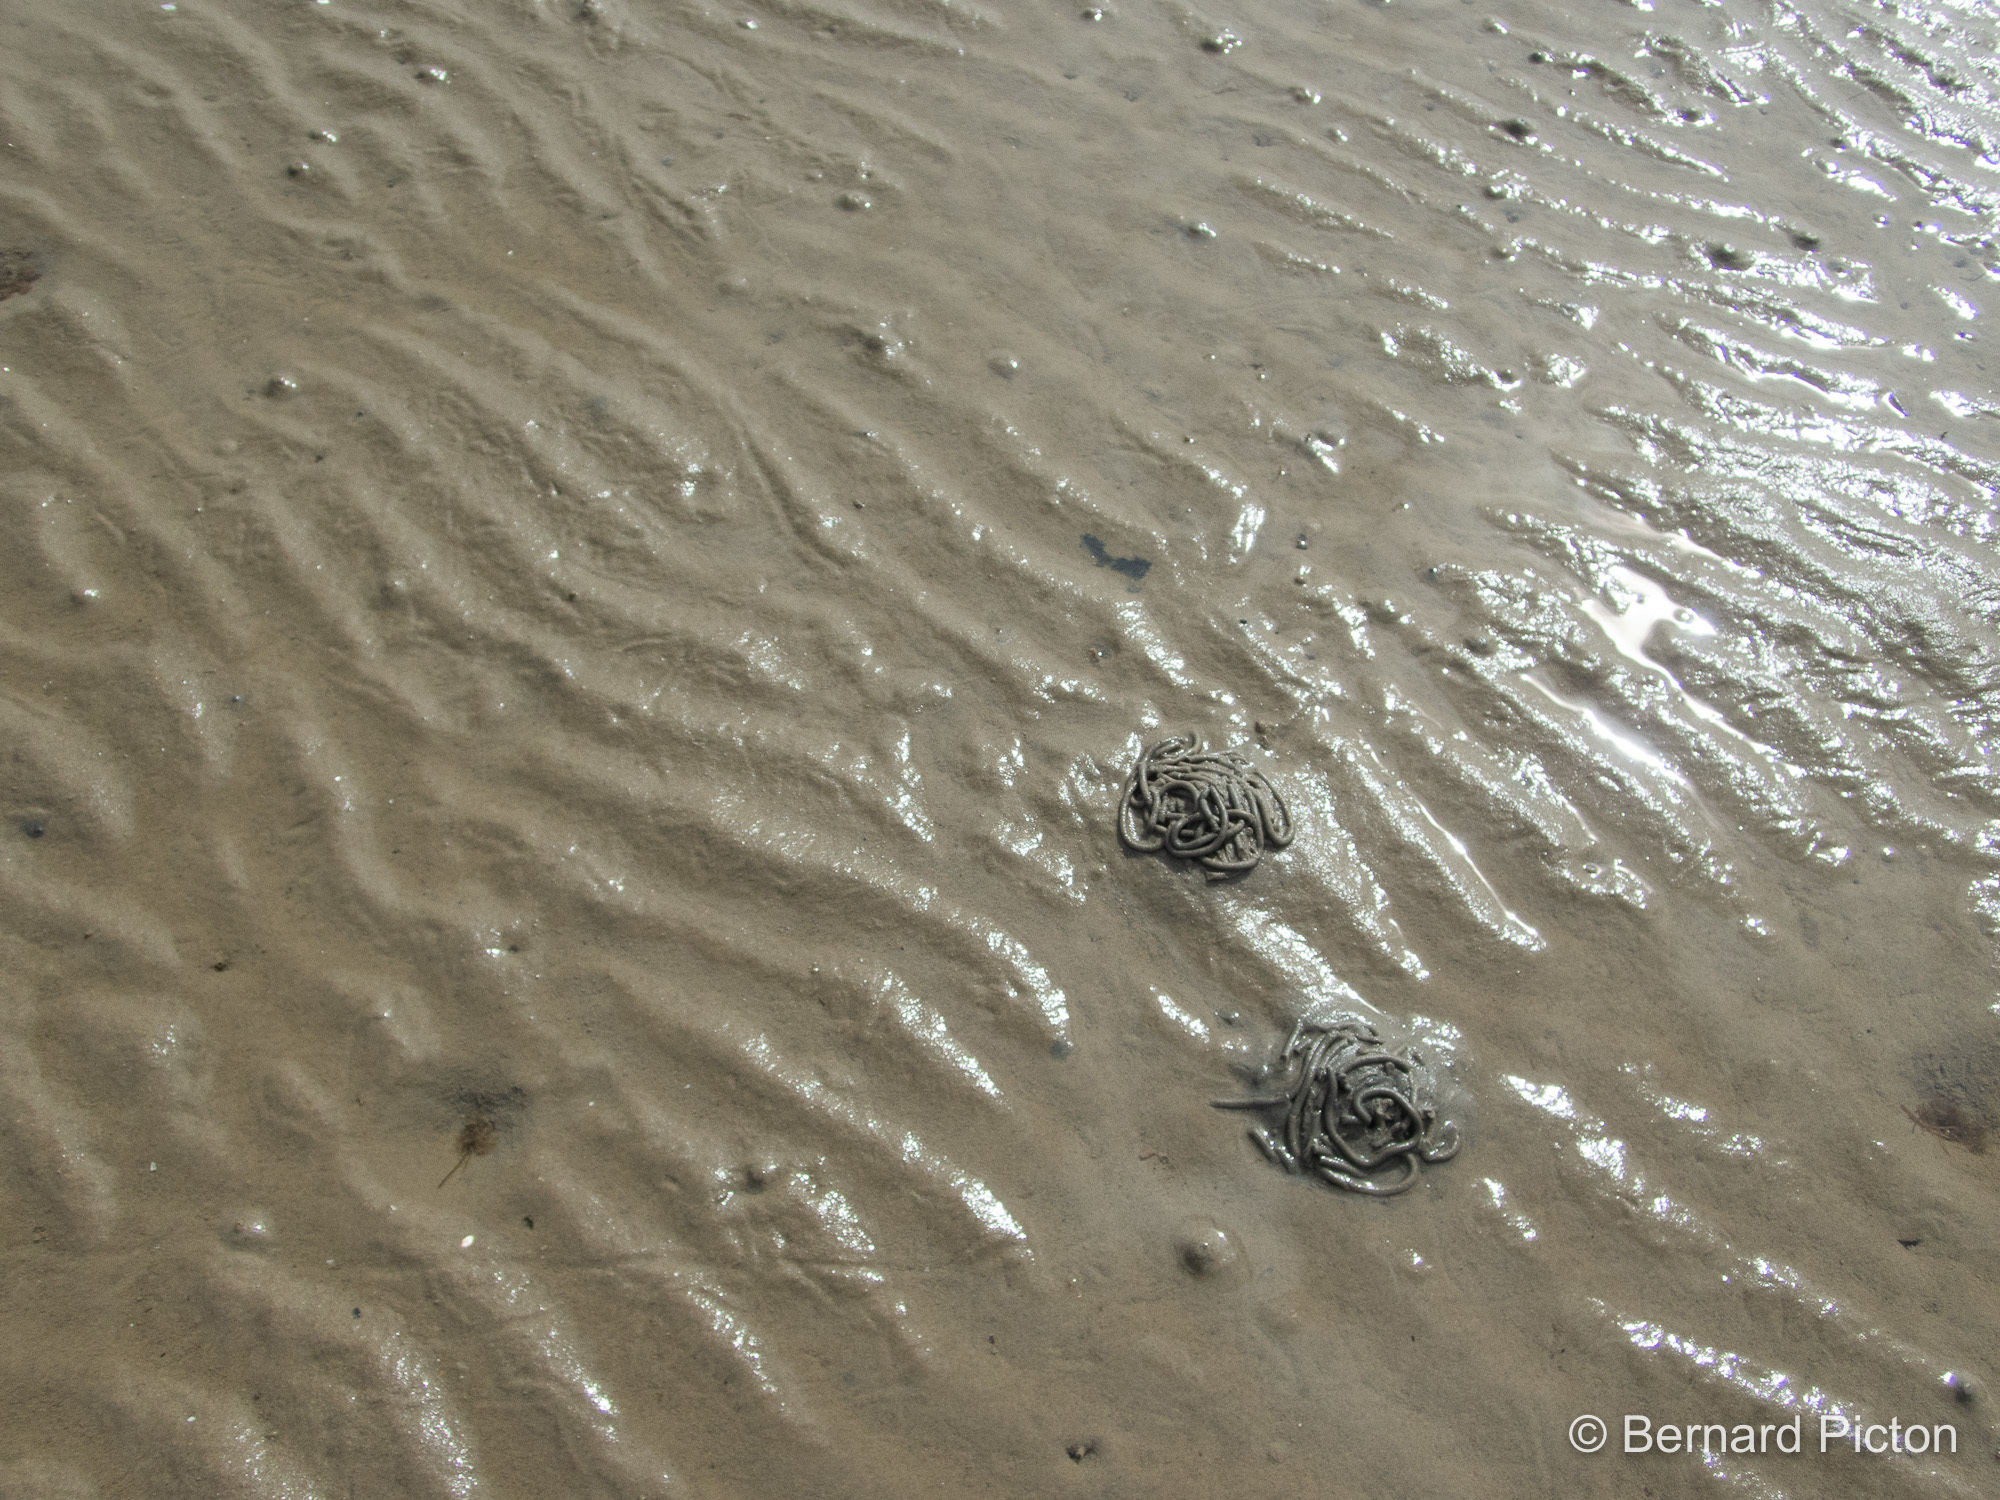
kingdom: Animalia
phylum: Annelida
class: Polychaeta
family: Arenicolidae
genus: Arenicola
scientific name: Arenicola marina
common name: Blow lugworm
